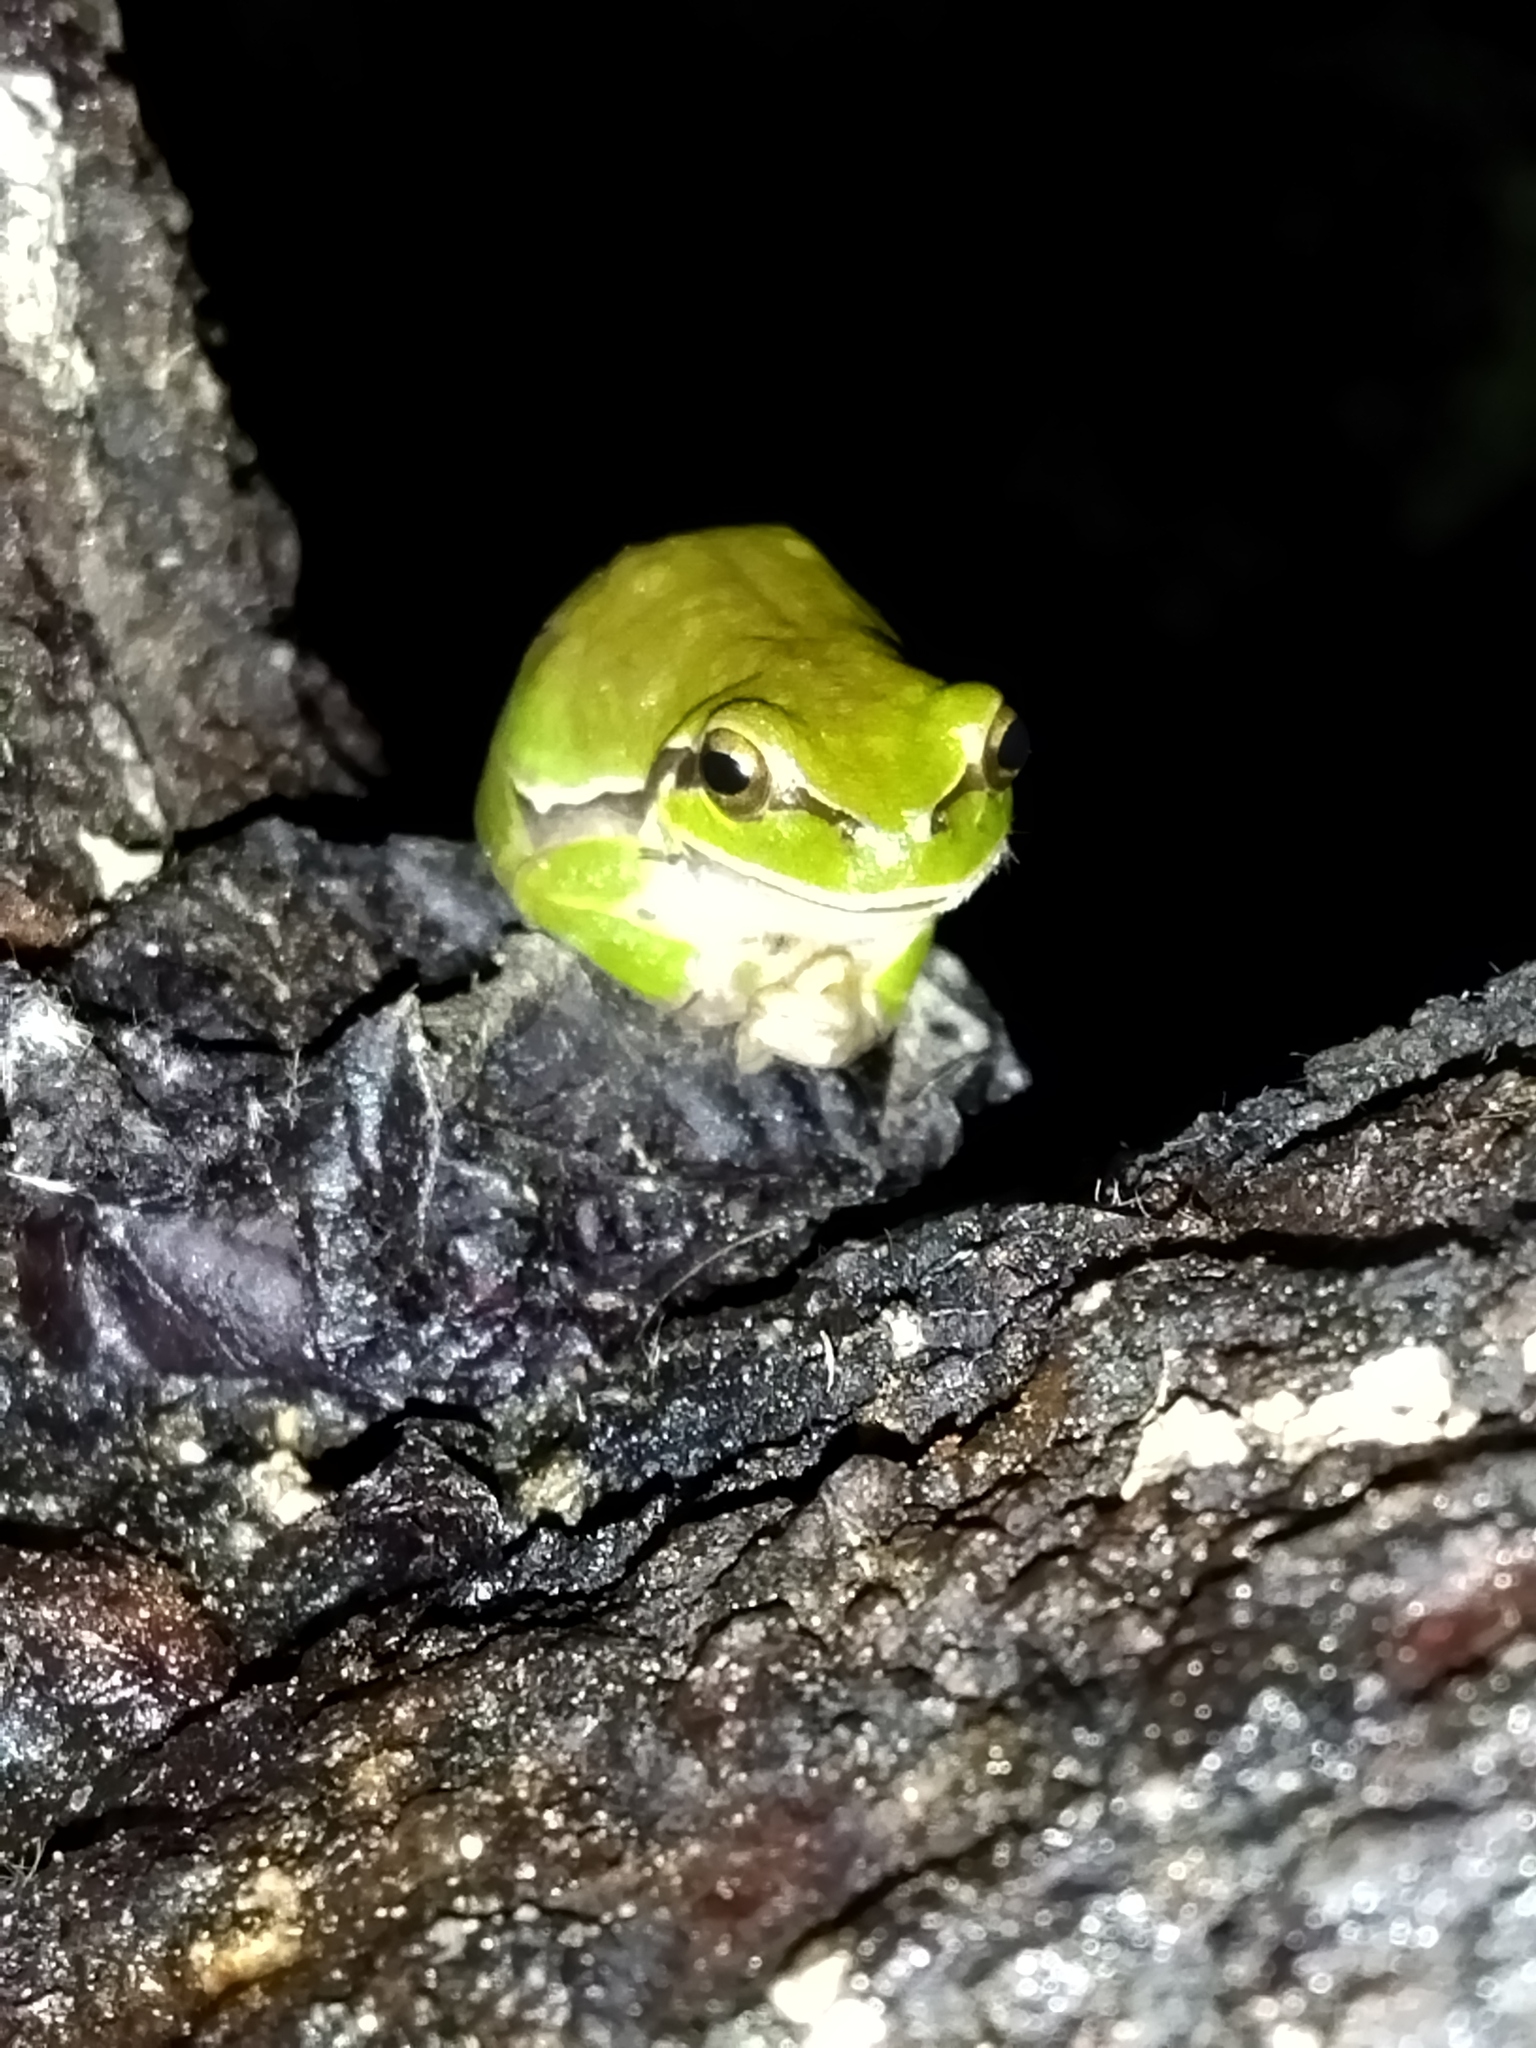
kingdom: Animalia
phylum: Chordata
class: Amphibia
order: Anura
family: Hylidae
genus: Hyla
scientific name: Hyla orientalis
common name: Caucasian treefrog
